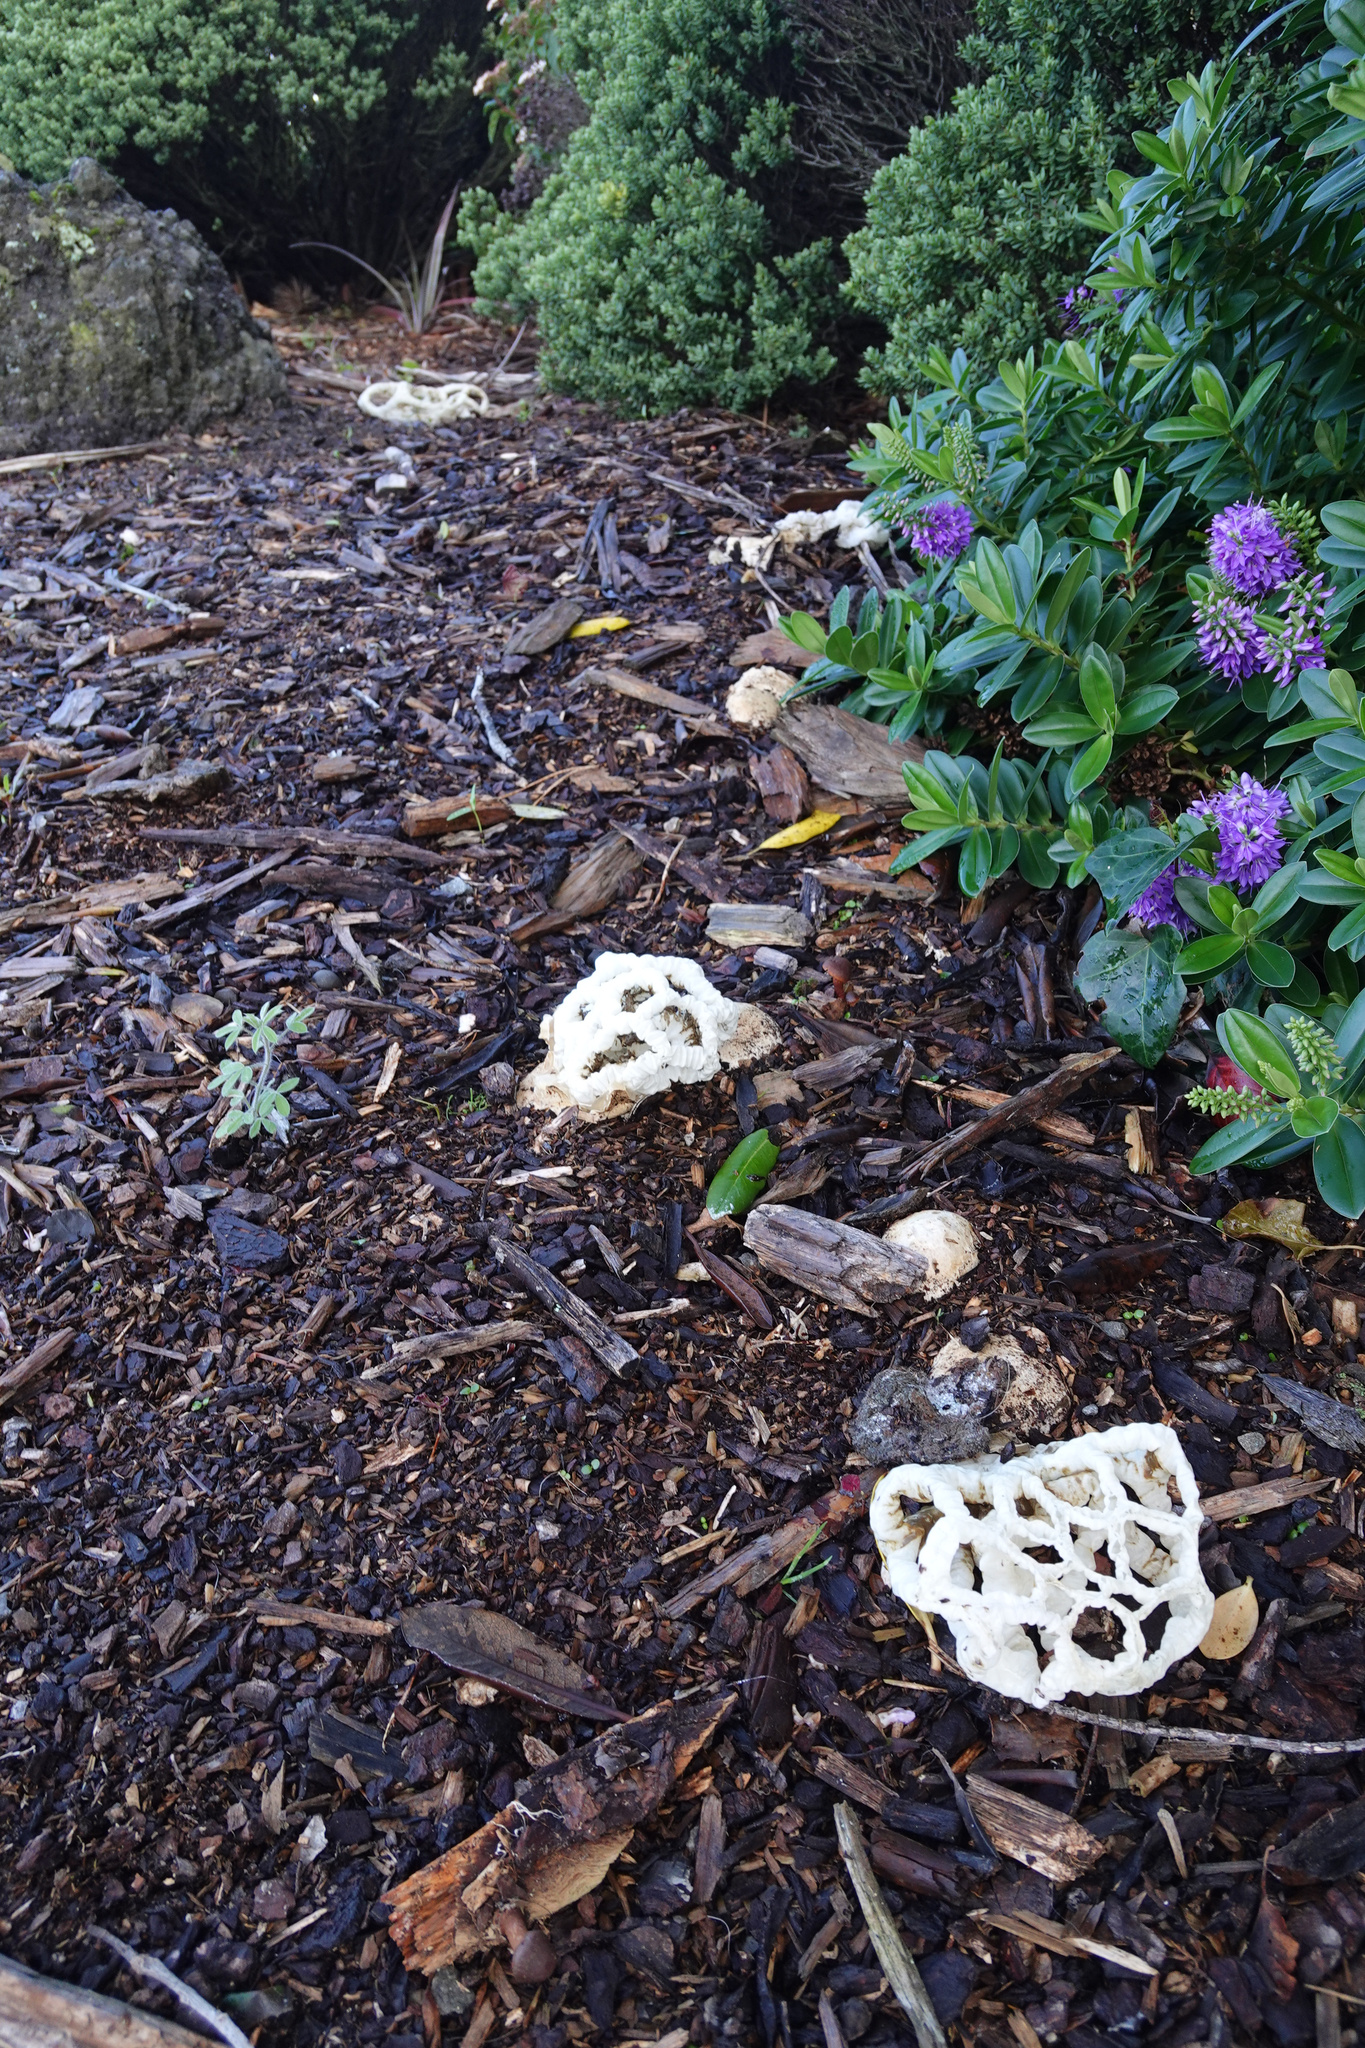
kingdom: Fungi
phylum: Basidiomycota
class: Agaricomycetes
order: Phallales
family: Phallaceae
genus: Ileodictyon
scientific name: Ileodictyon cibarium
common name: Basket fungus
